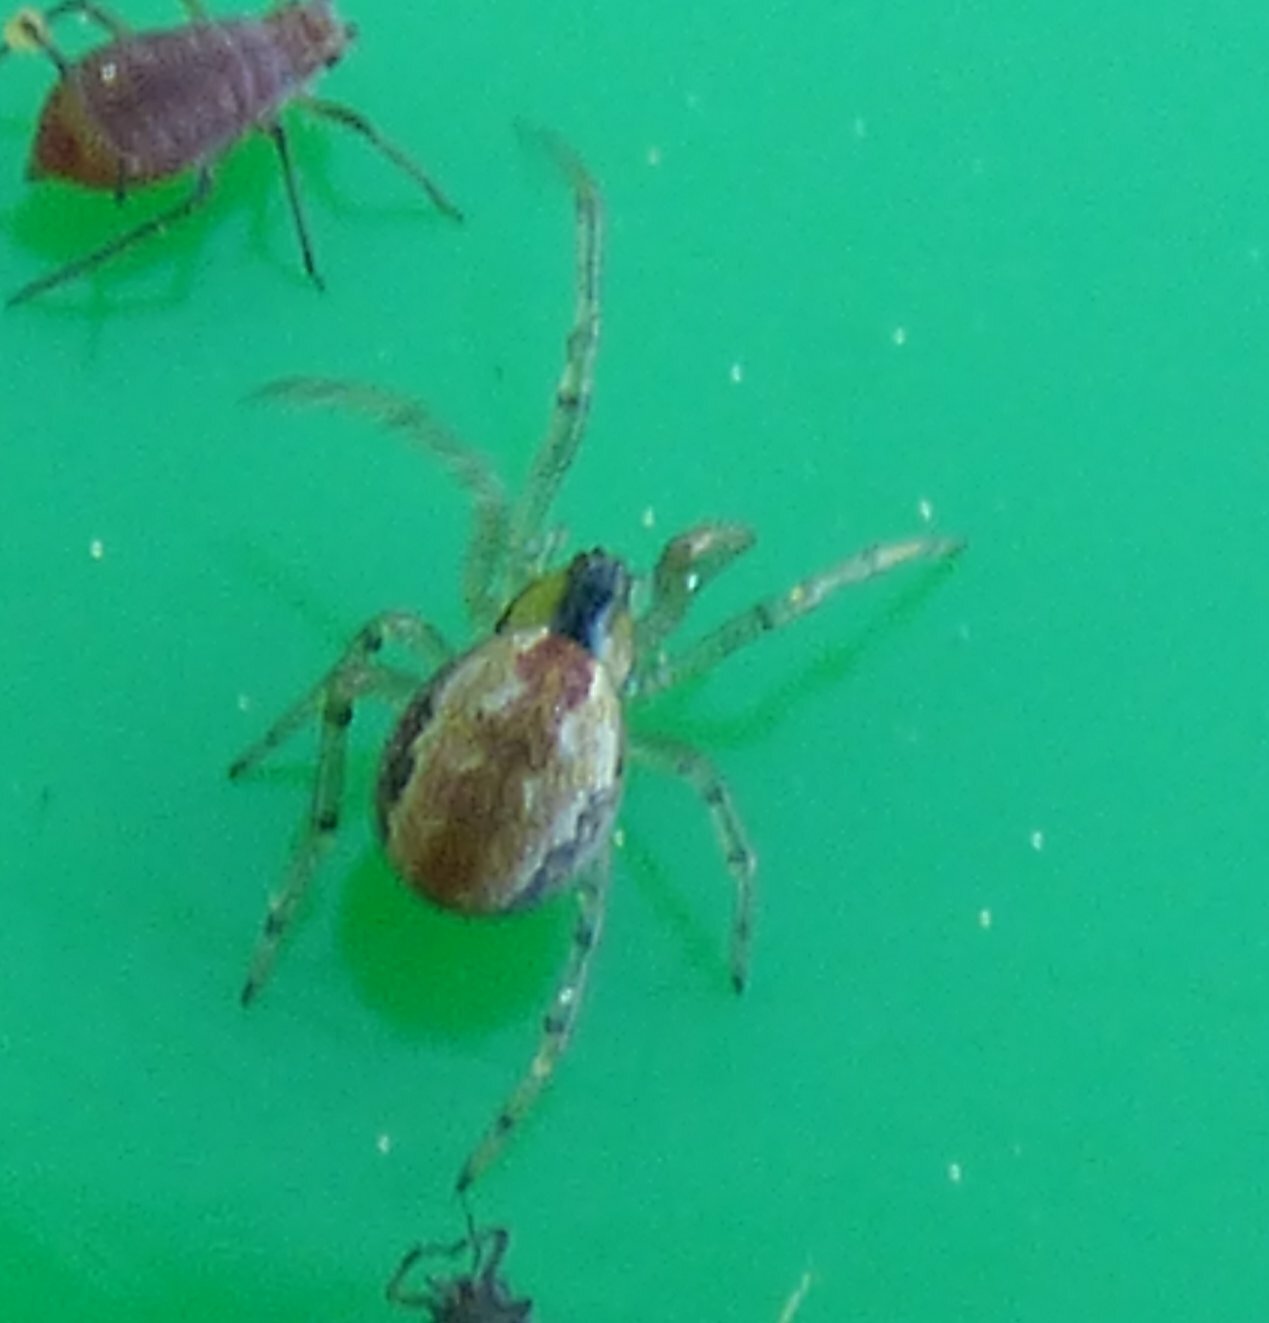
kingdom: Animalia
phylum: Arthropoda
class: Arachnida
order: Araneae
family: Theridiidae
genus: Kochiura
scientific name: Kochiura aulica
